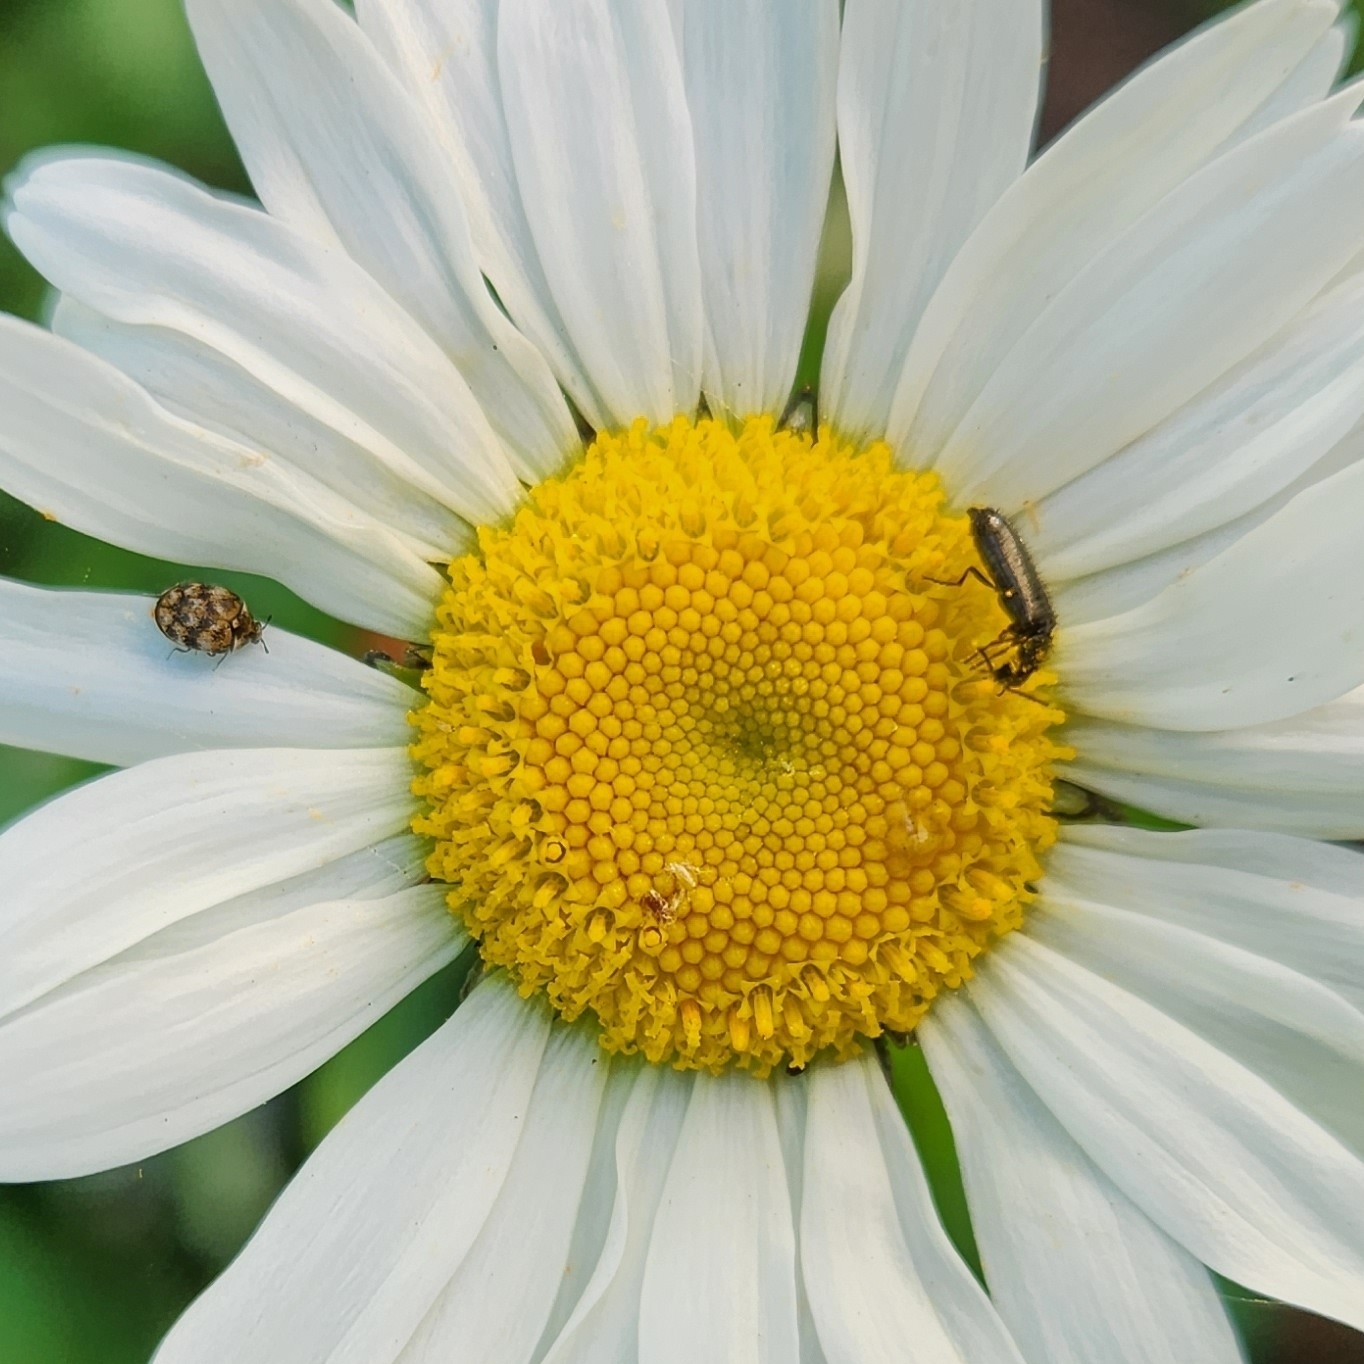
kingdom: Animalia
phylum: Arthropoda
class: Insecta
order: Coleoptera
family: Melyridae
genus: Dasytes
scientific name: Dasytes plumbeus
